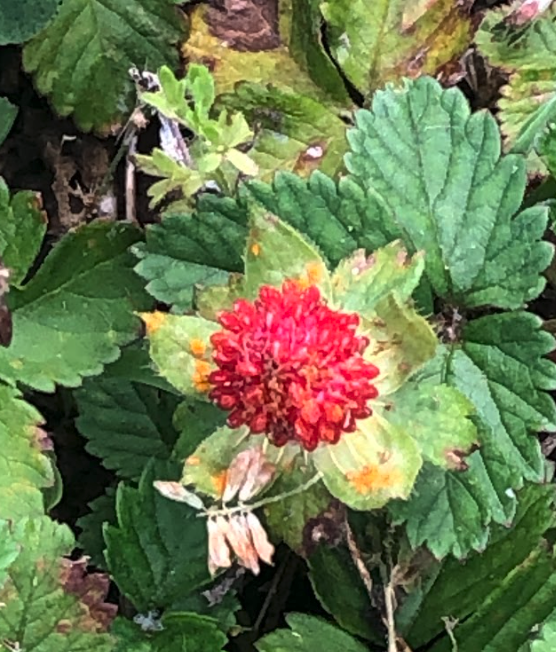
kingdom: Plantae
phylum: Tracheophyta
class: Magnoliopsida
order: Rosales
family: Rosaceae
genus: Potentilla
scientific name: Potentilla indica
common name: Yellow-flowered strawberry
